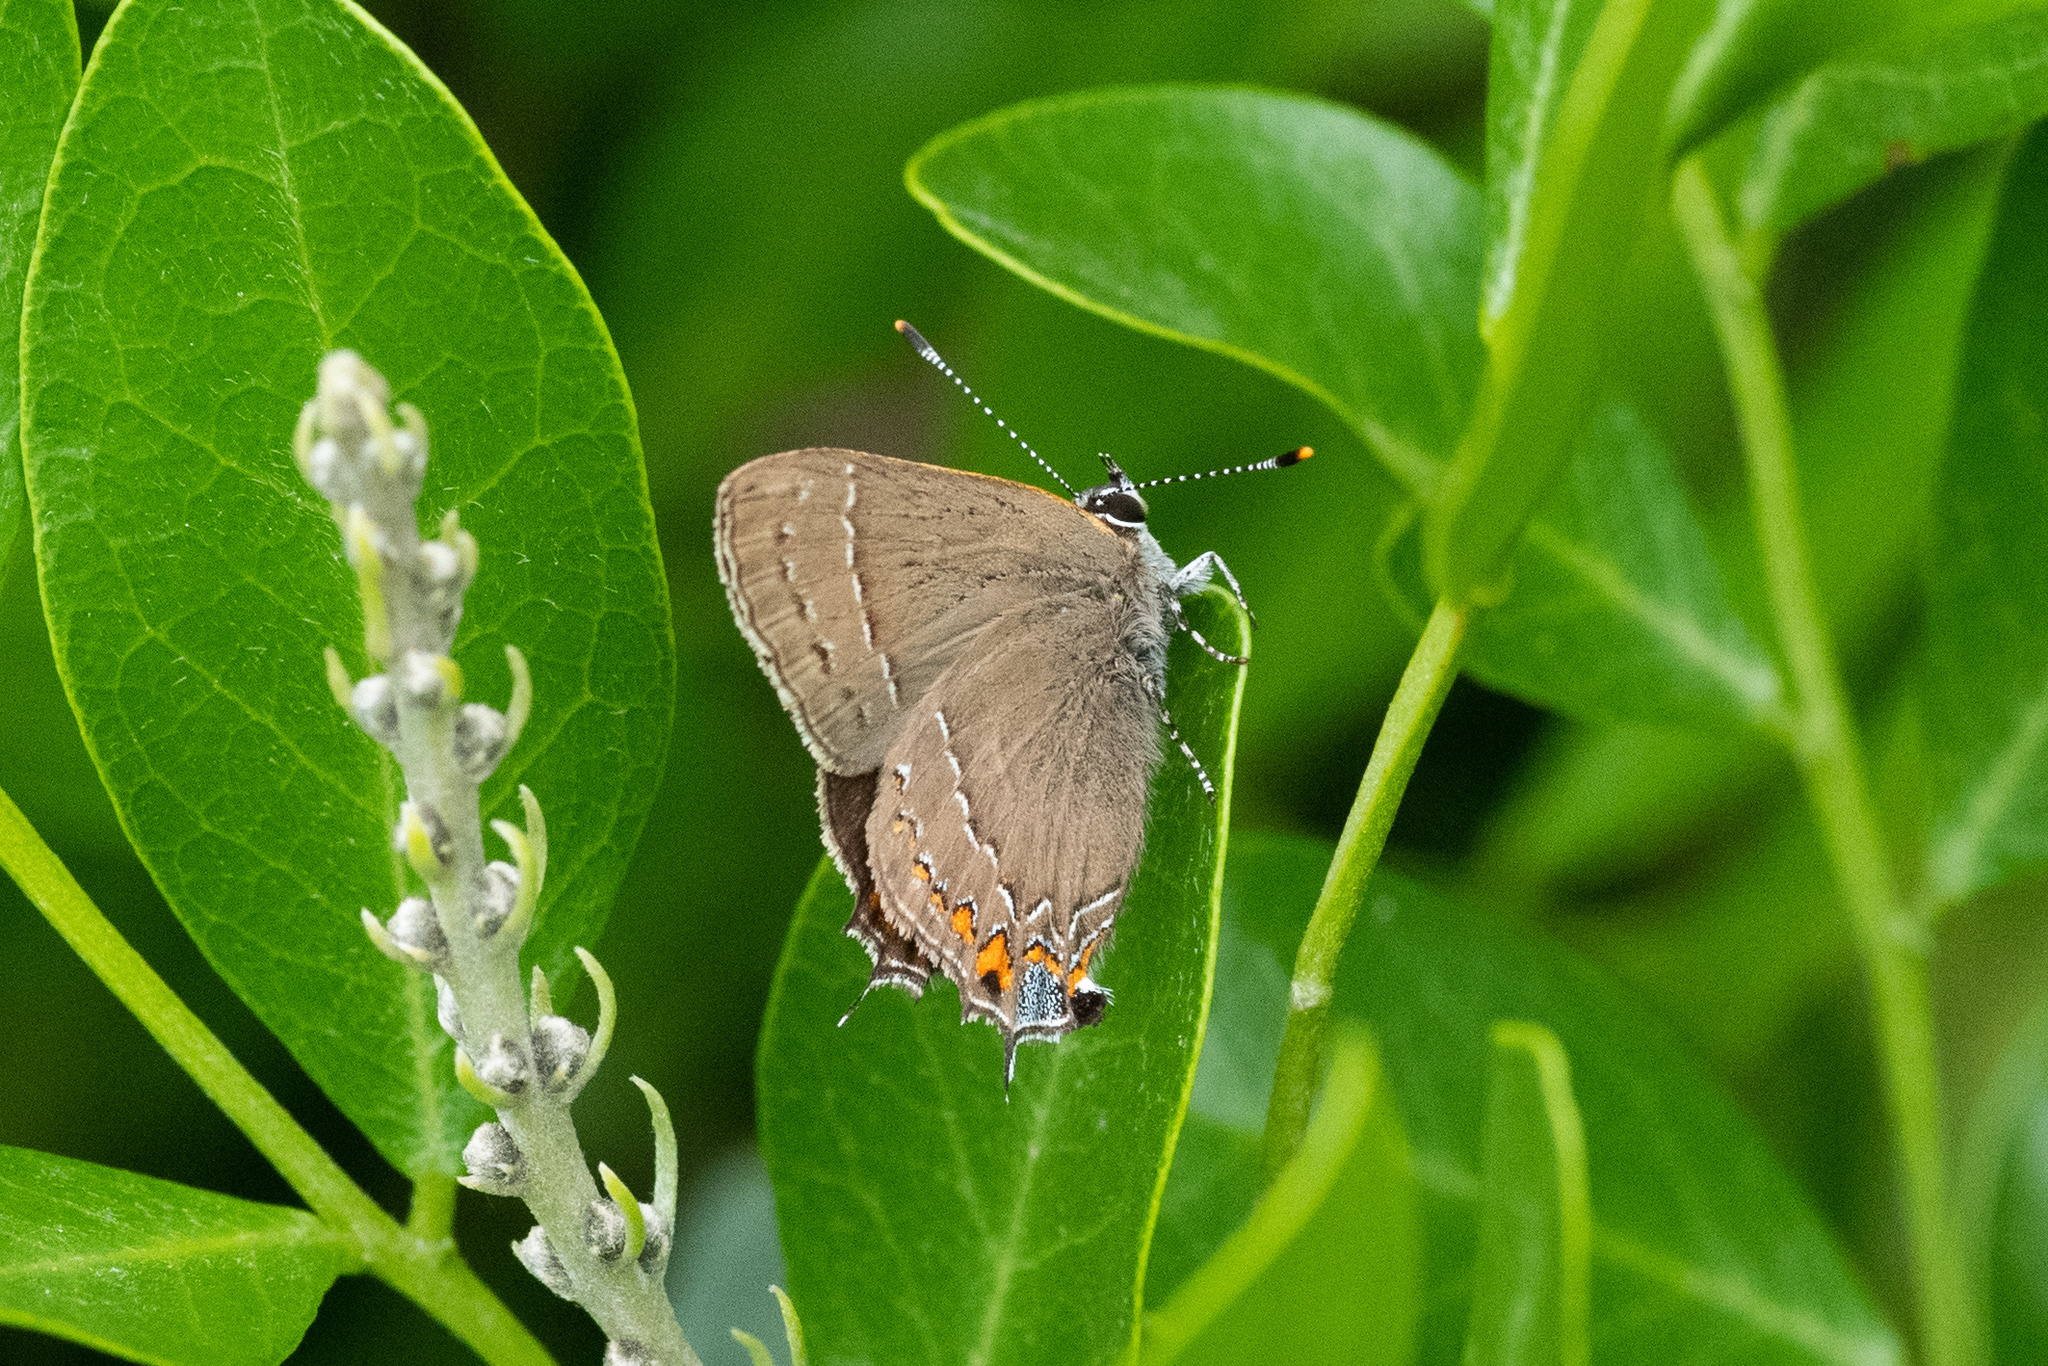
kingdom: Animalia
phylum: Arthropoda
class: Insecta
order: Lepidoptera
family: Lycaenidae
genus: Fixsenia
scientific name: Fixsenia favonius
